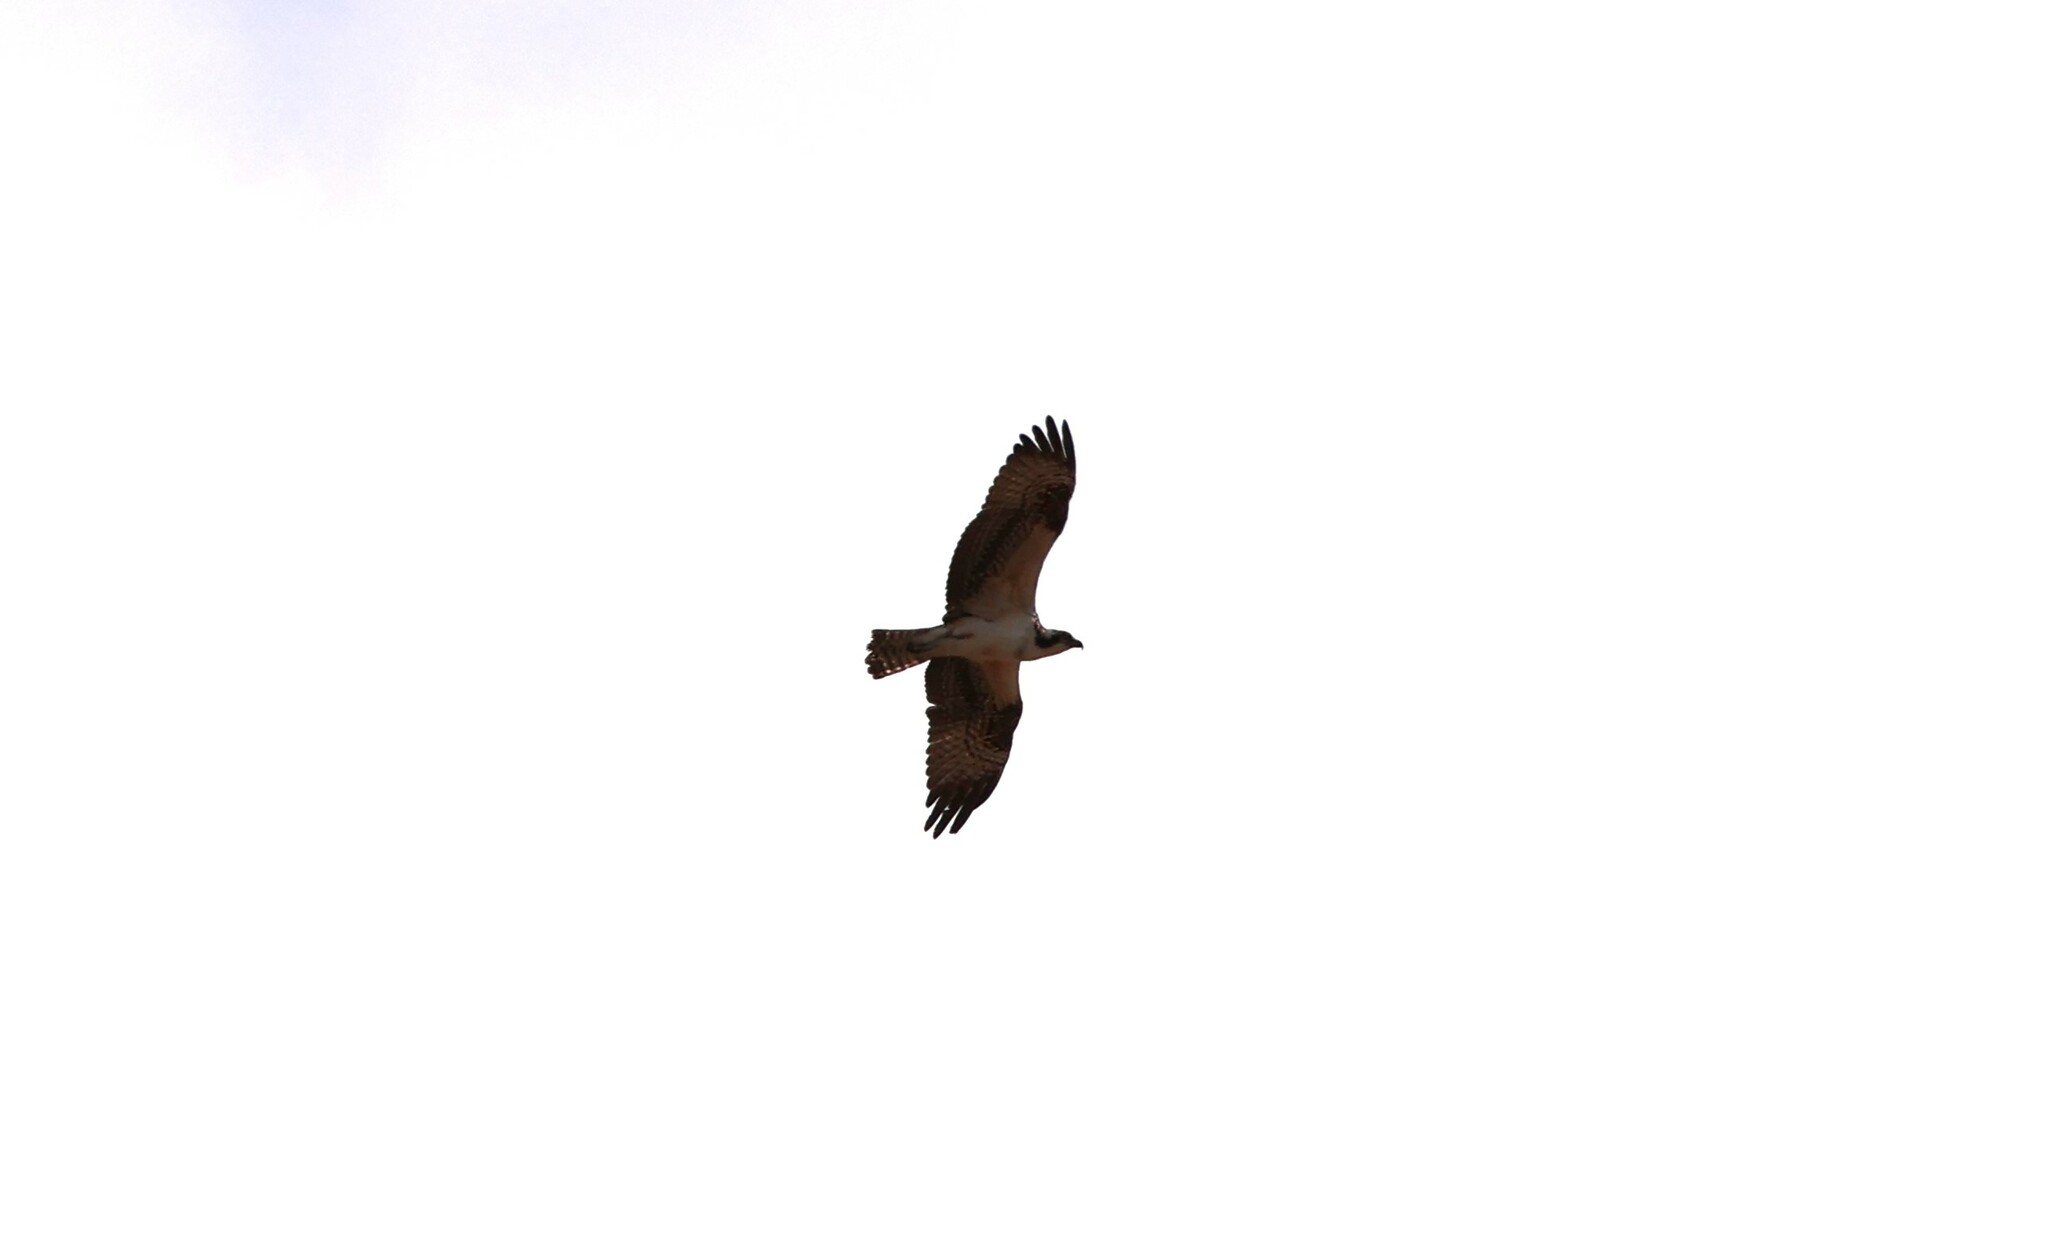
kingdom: Animalia
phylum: Chordata
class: Aves
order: Accipitriformes
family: Pandionidae
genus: Pandion
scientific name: Pandion haliaetus
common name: Osprey
